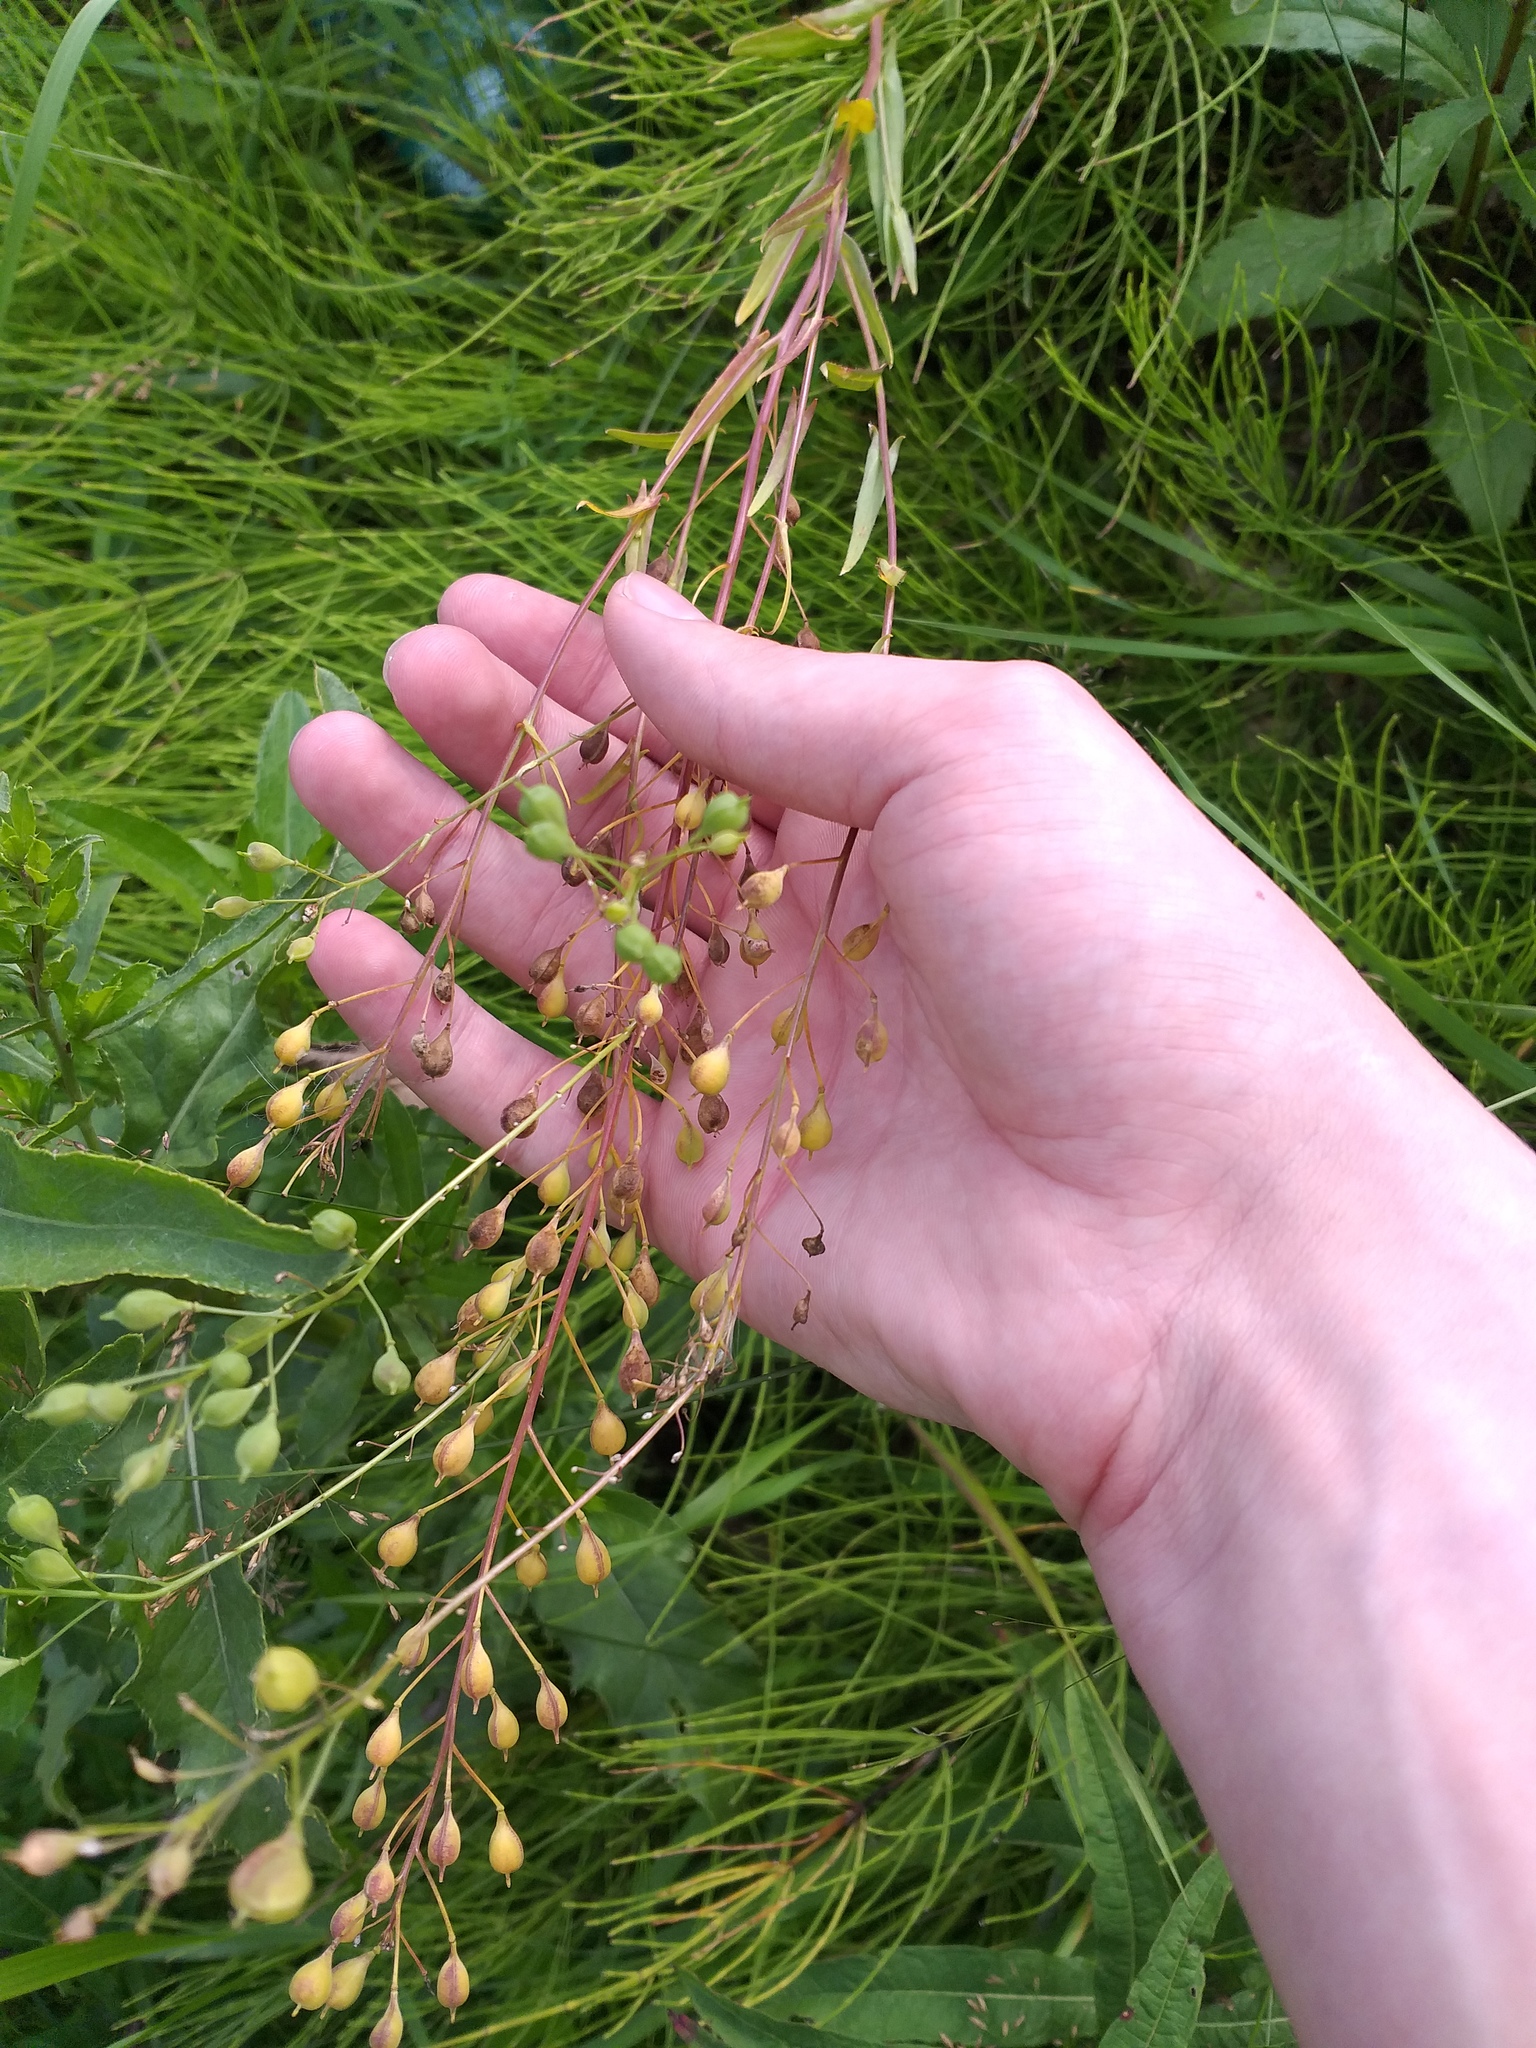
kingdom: Plantae
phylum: Tracheophyta
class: Magnoliopsida
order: Brassicales
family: Brassicaceae
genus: Camelina
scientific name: Camelina sativa
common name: Gold-of-pleasure
